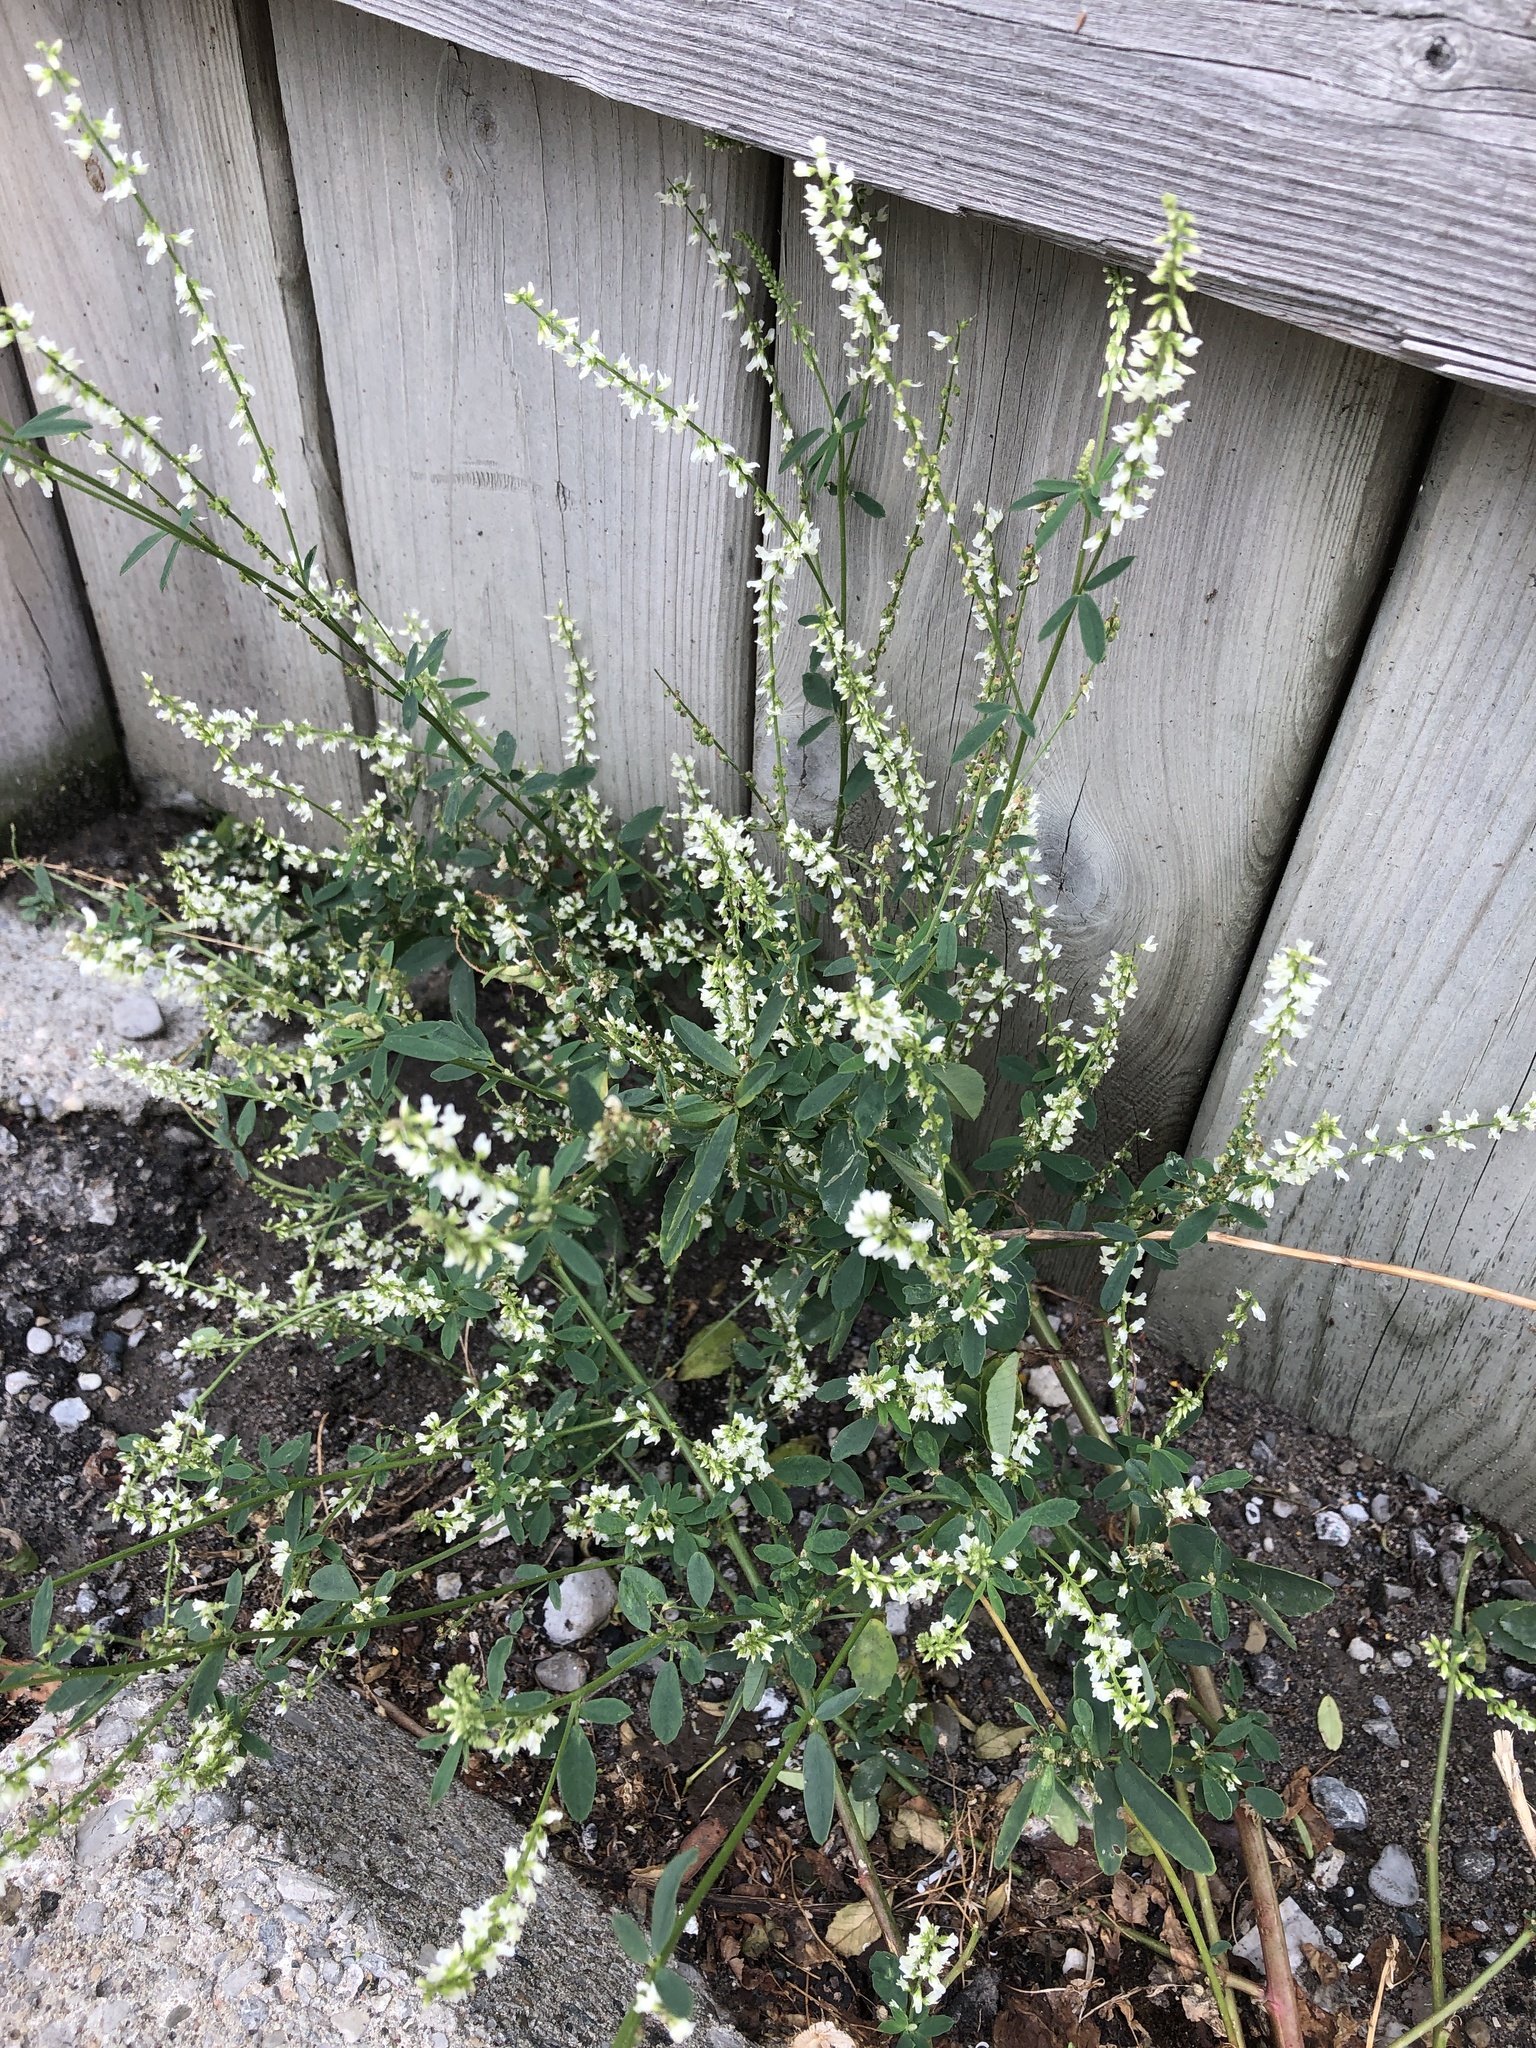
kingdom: Plantae
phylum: Tracheophyta
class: Magnoliopsida
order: Fabales
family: Fabaceae
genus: Melilotus
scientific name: Melilotus albus
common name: White melilot
